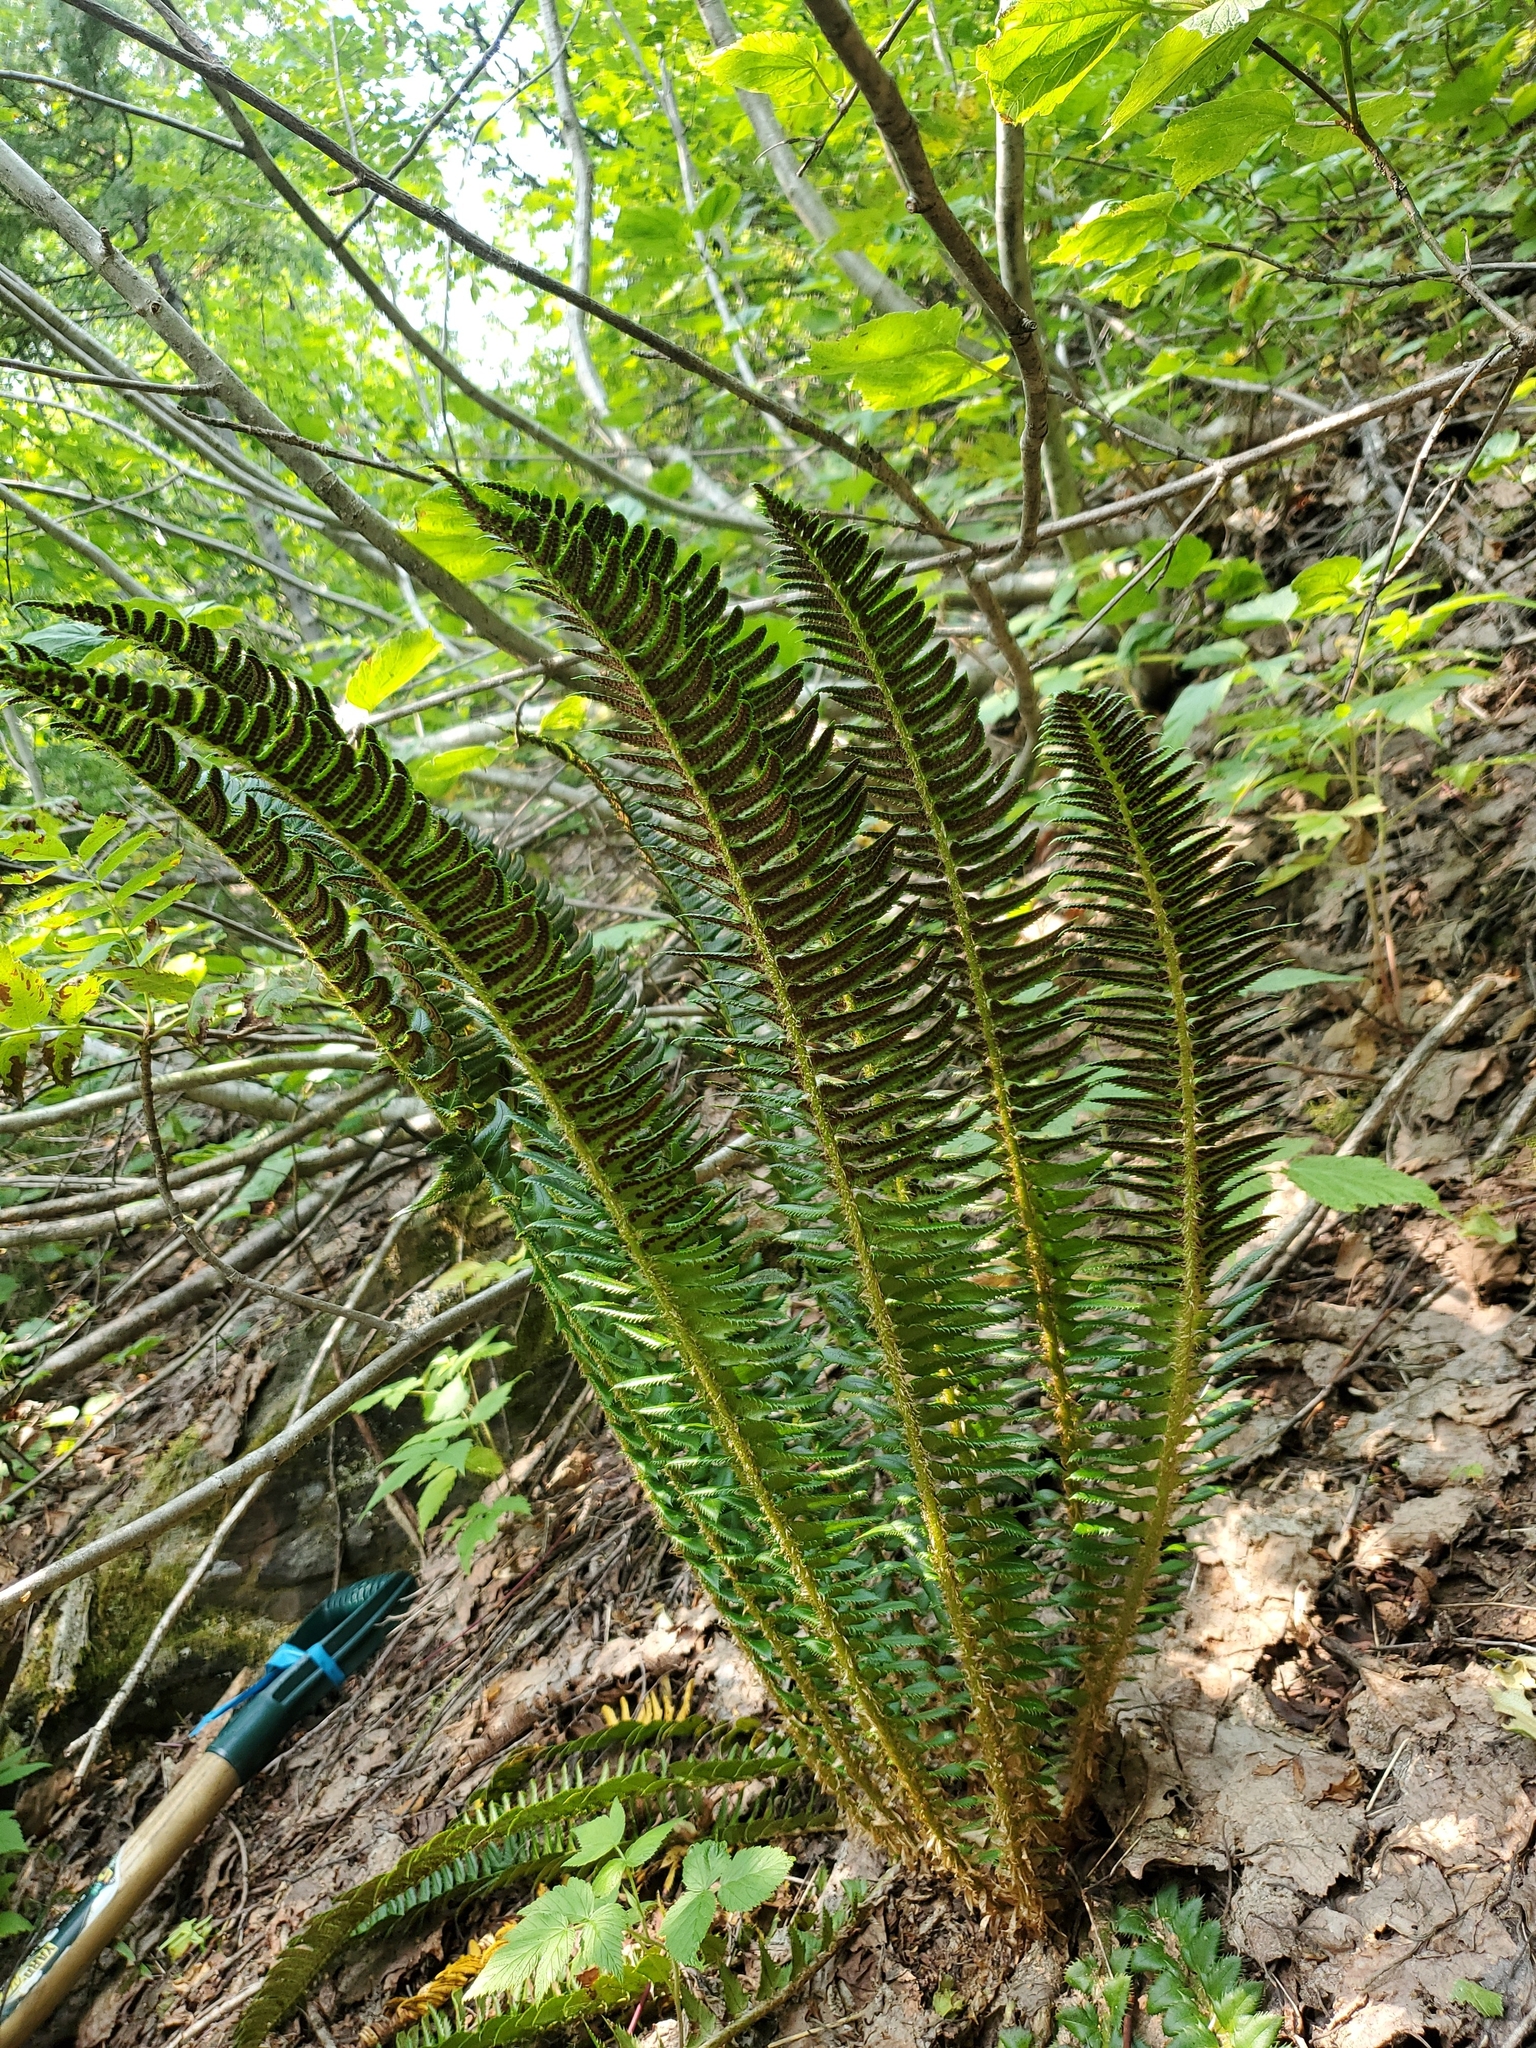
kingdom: Plantae
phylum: Tracheophyta
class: Polypodiopsida
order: Polypodiales
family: Dryopteridaceae
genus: Polystichum
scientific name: Polystichum lonchitis
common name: Holly fern
